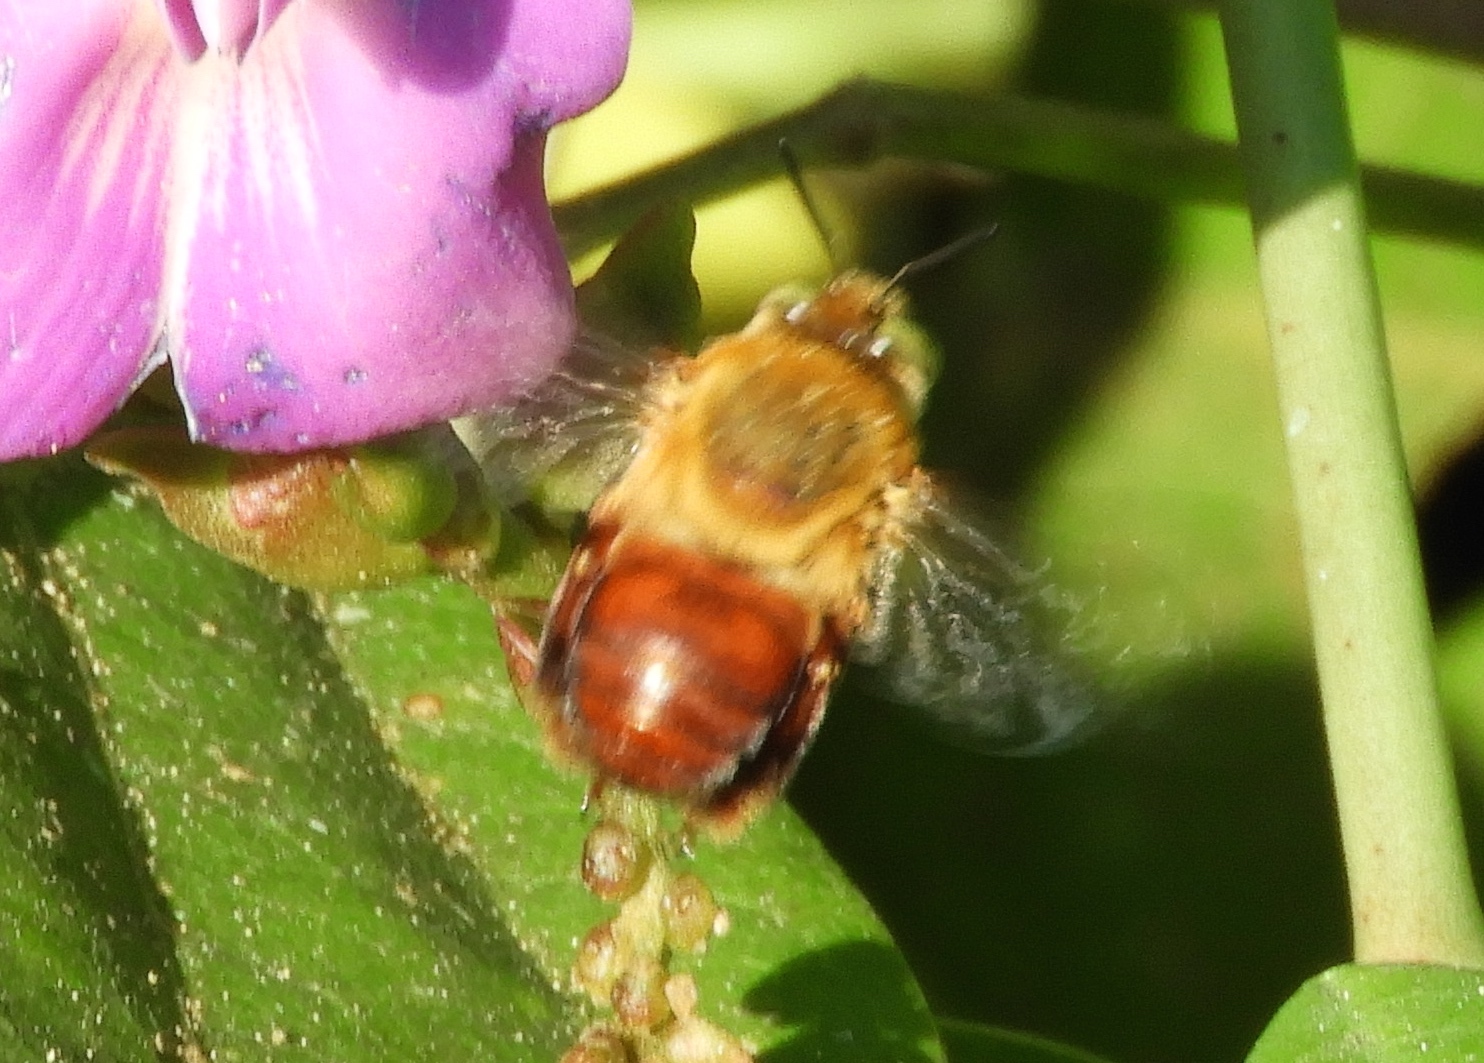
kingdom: Animalia
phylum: Arthropoda
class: Insecta
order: Hymenoptera
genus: Trachina
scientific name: Trachina
